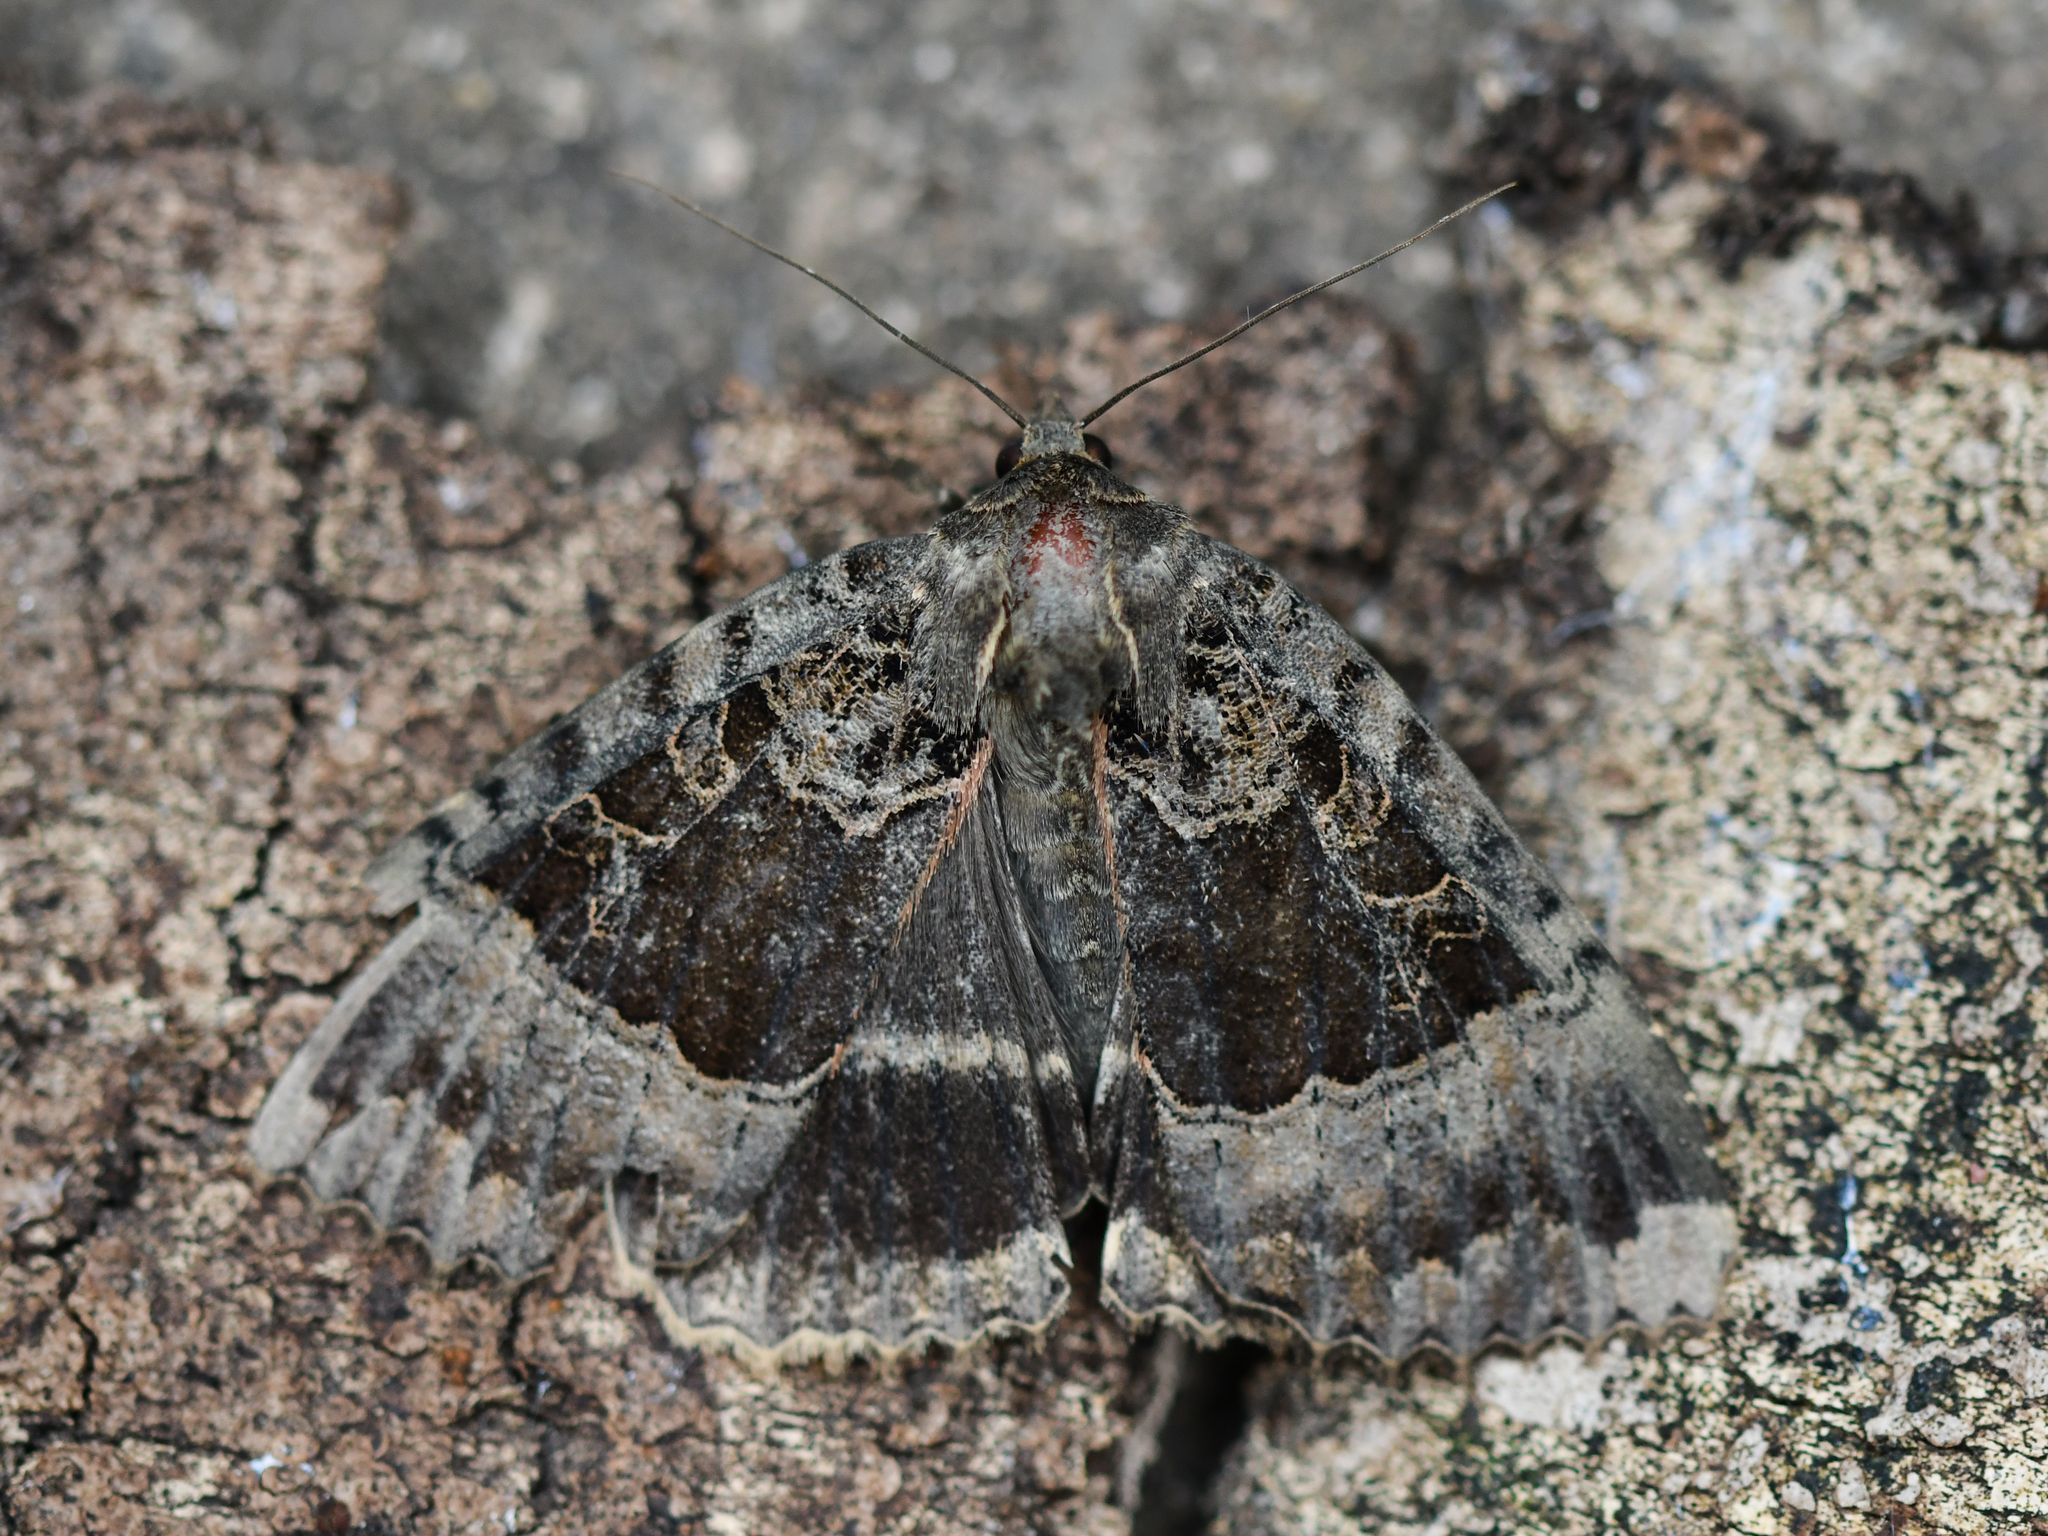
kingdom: Animalia
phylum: Arthropoda
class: Insecta
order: Lepidoptera
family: Noctuidae
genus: Mormo
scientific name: Mormo maura
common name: Old lady
